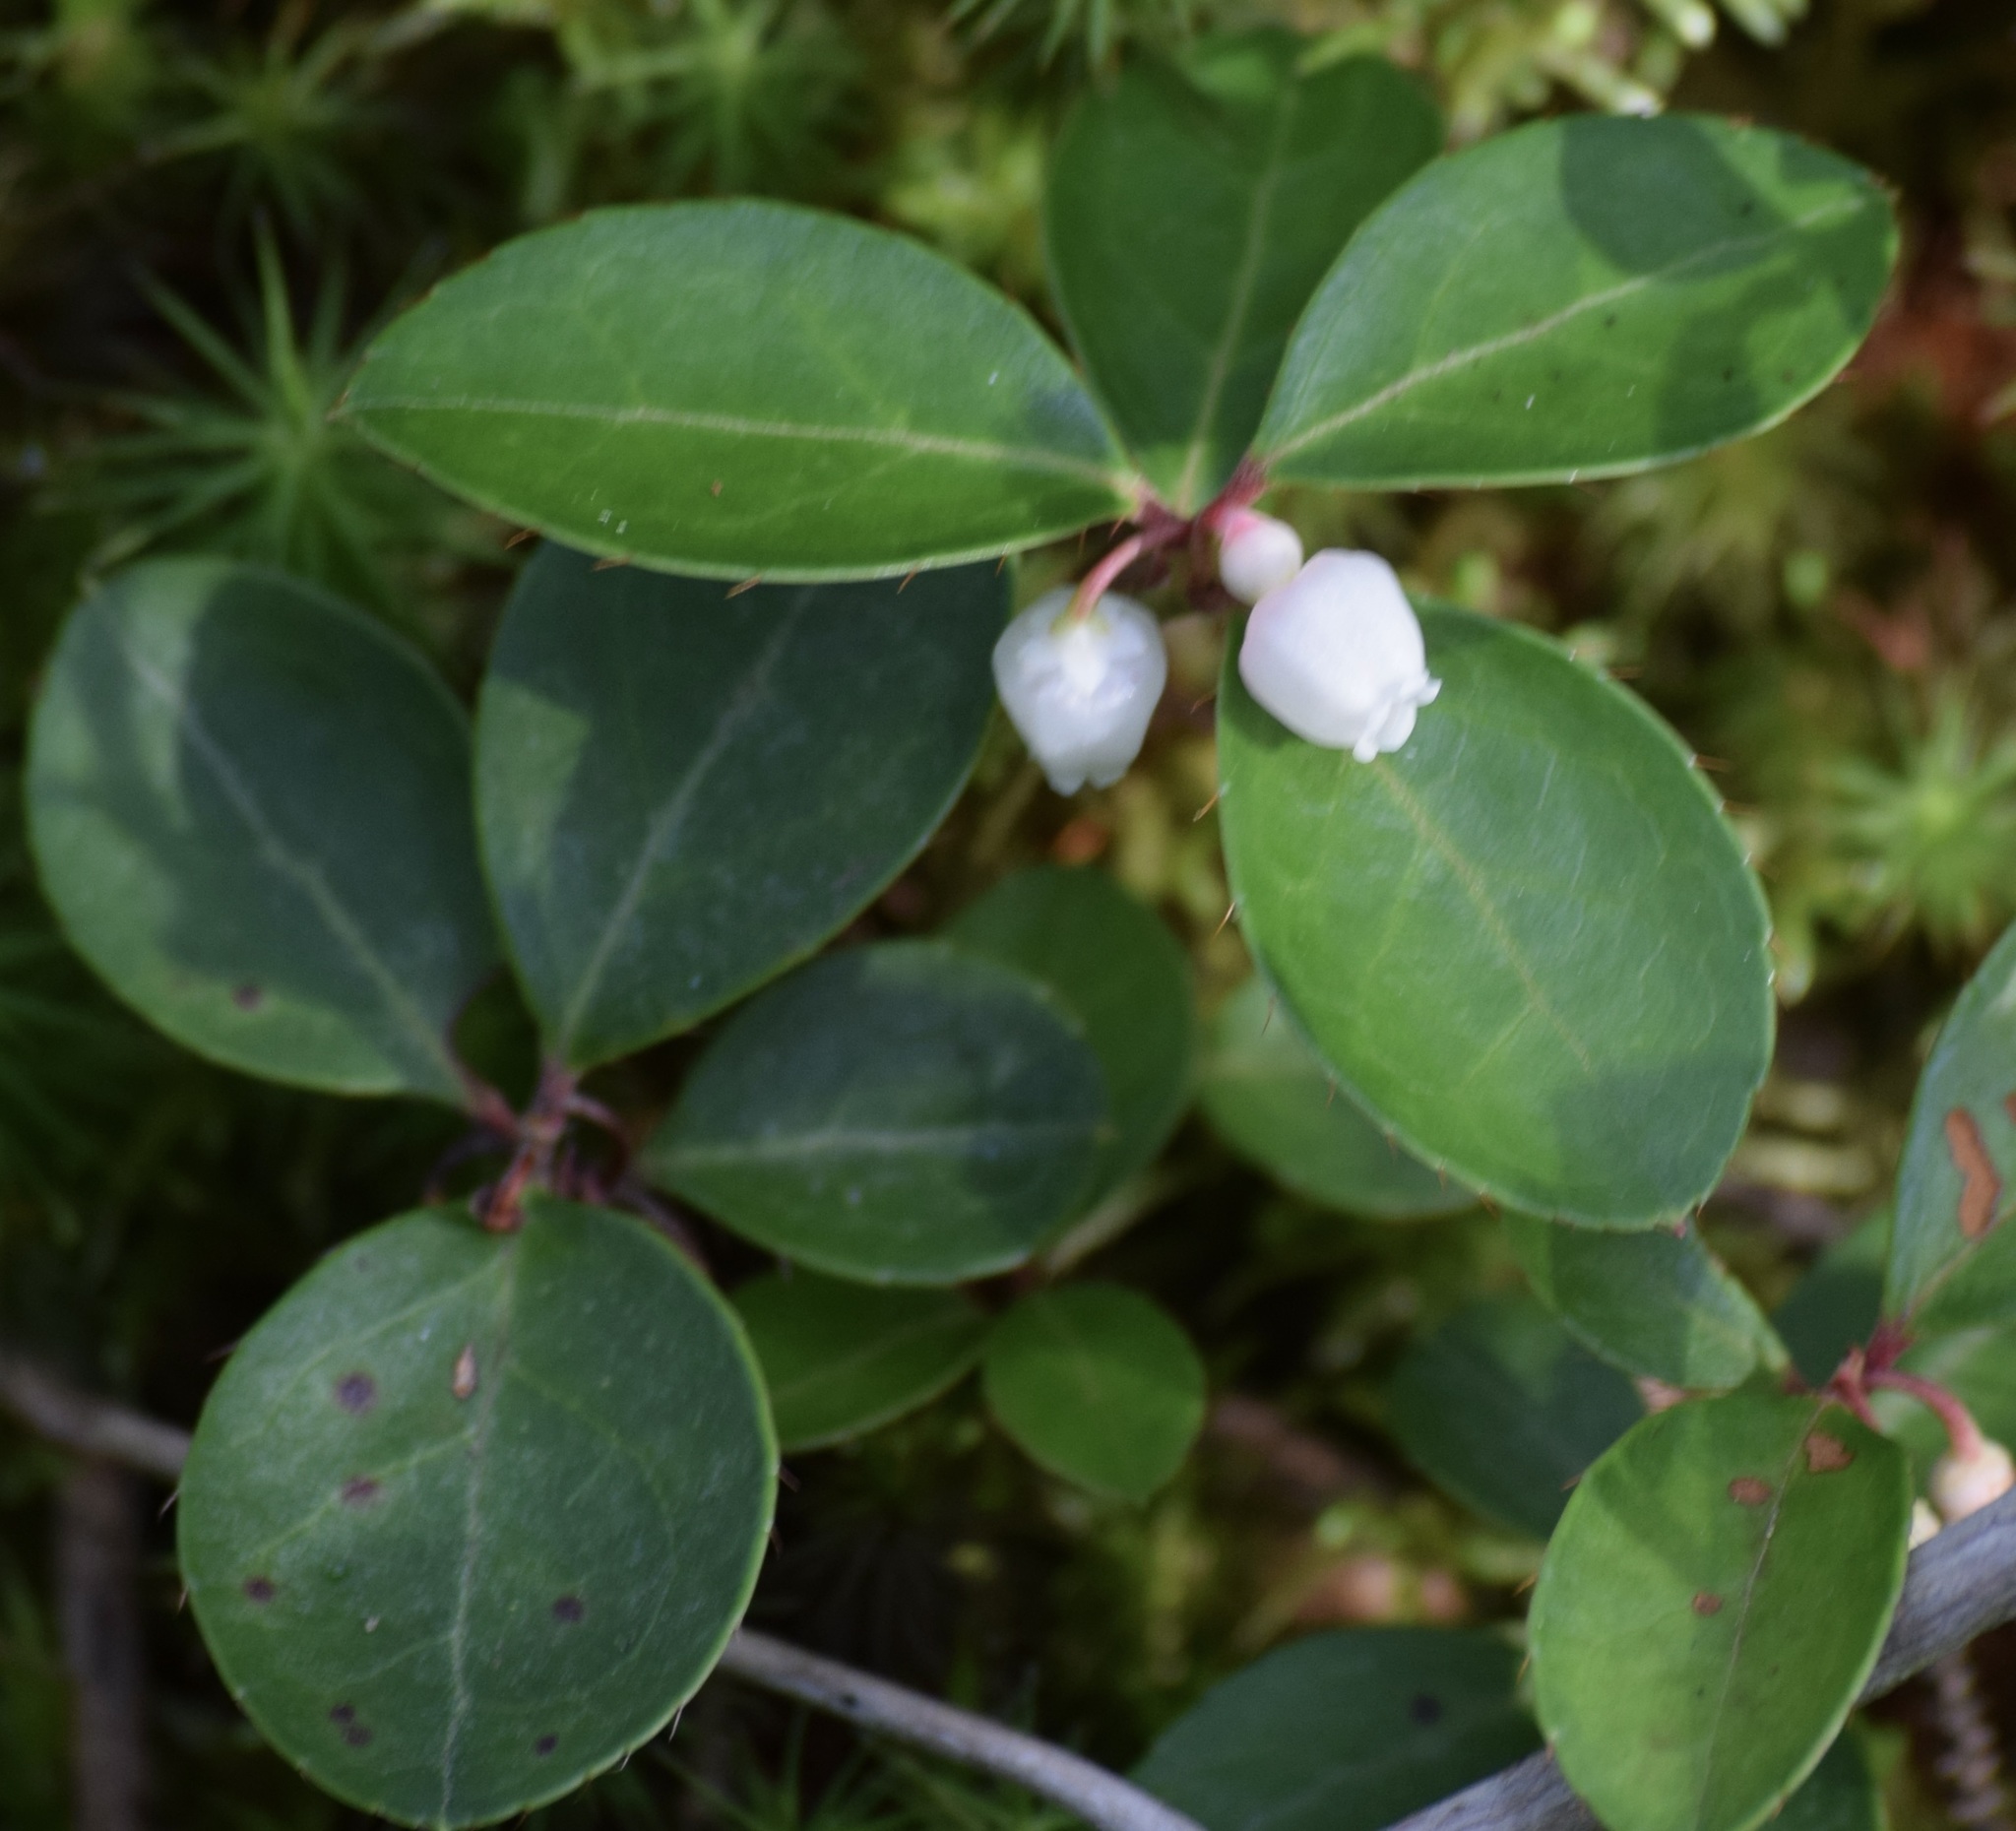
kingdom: Plantae
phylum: Tracheophyta
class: Magnoliopsida
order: Ericales
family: Ericaceae
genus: Gaultheria
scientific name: Gaultheria procumbens
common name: Checkerberry
